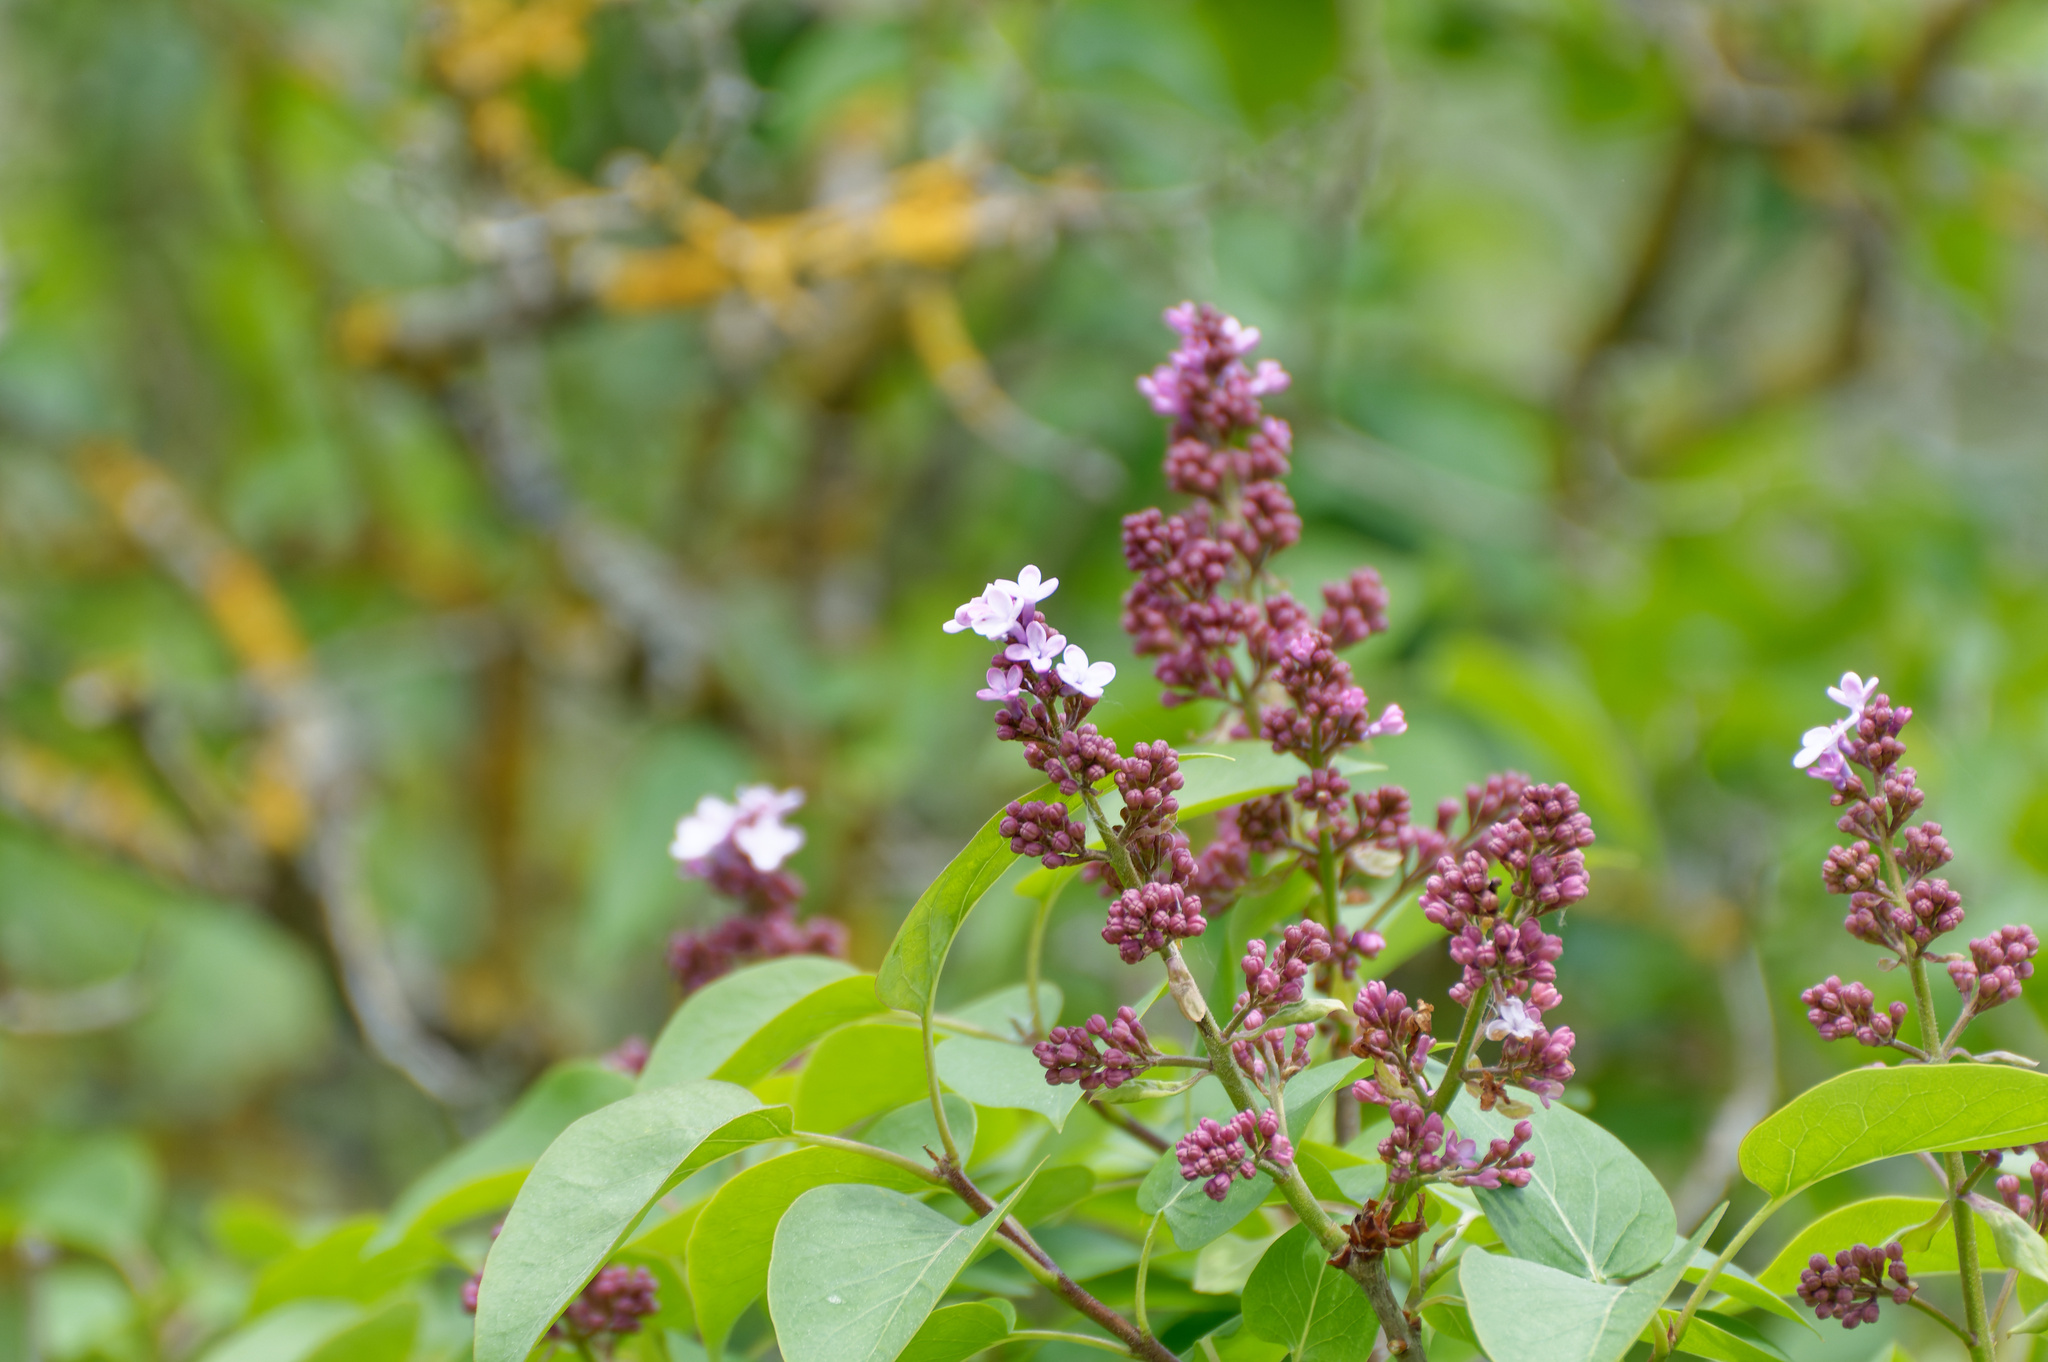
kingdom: Plantae
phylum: Tracheophyta
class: Magnoliopsida
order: Lamiales
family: Oleaceae
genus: Syringa
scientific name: Syringa vulgaris
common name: Common lilac
